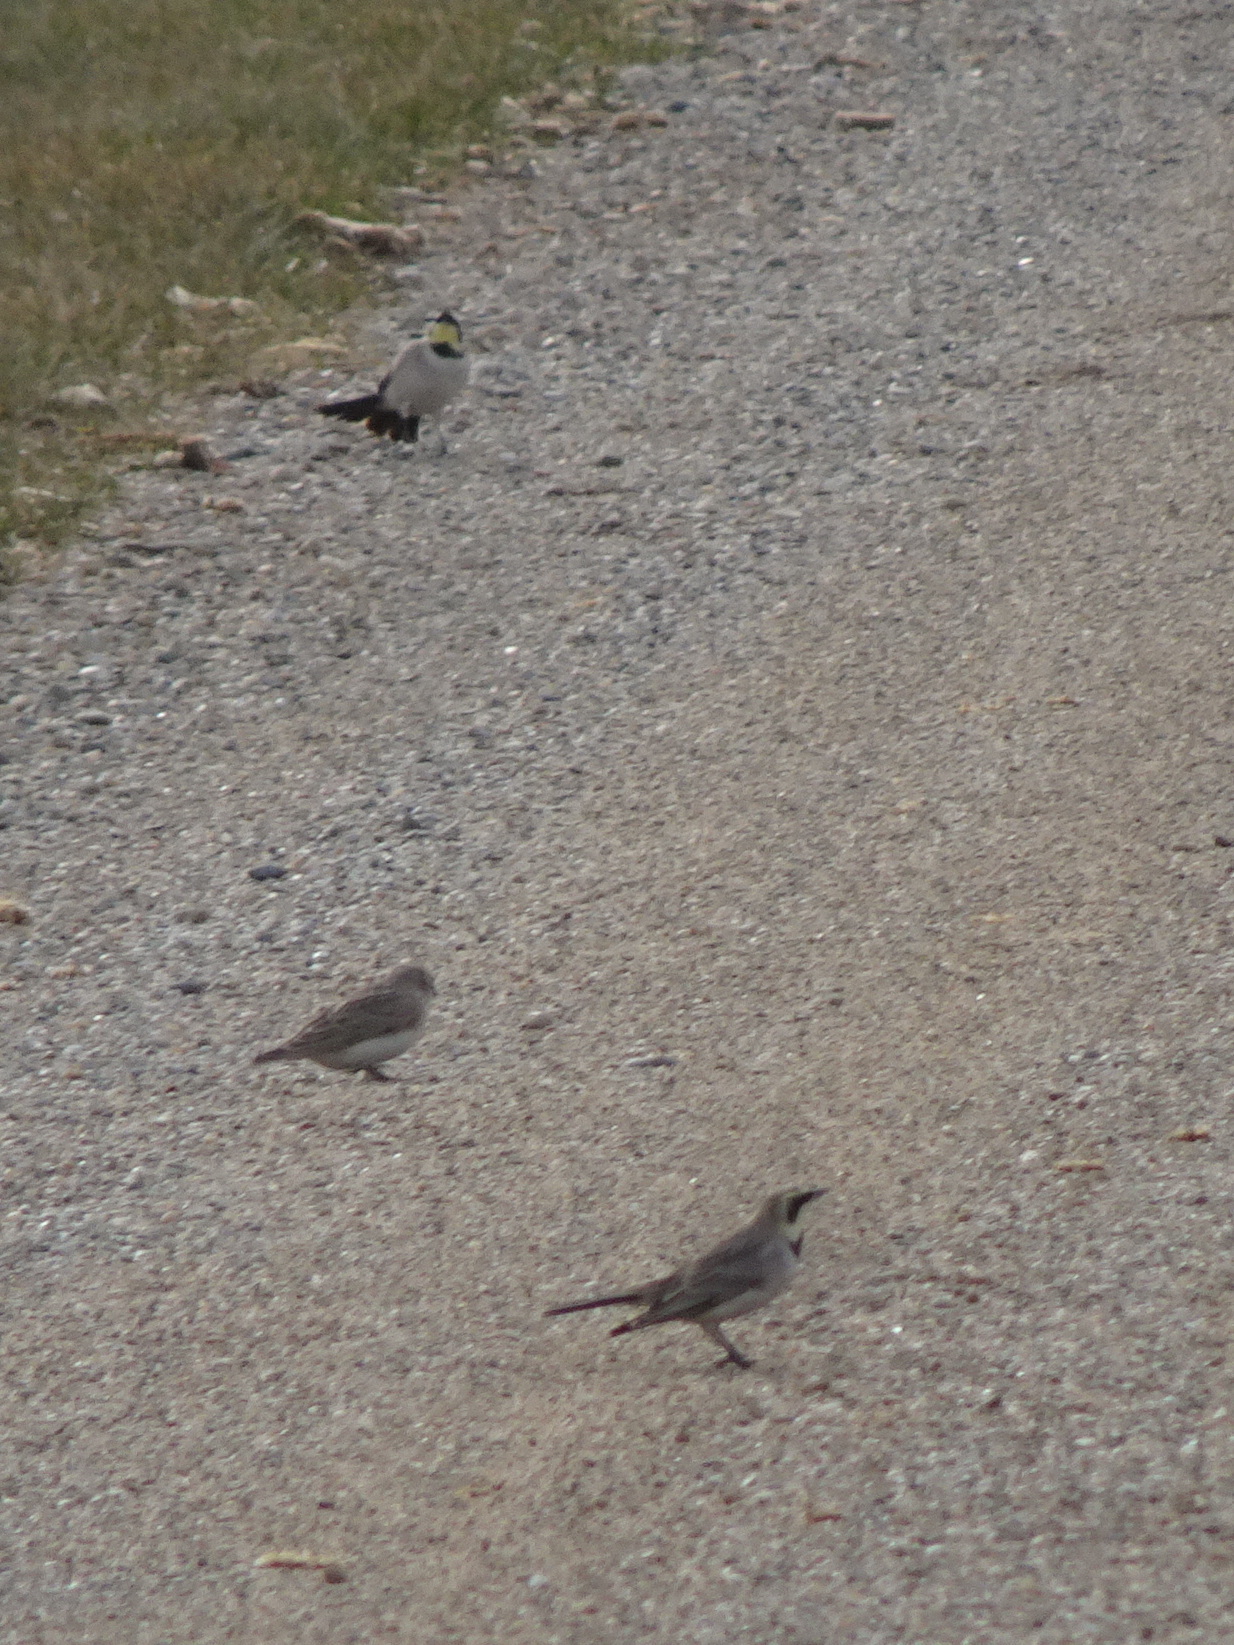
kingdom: Animalia
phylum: Chordata
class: Aves
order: Passeriformes
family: Alaudidae
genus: Eremophila
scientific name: Eremophila alpestris
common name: Horned lark
